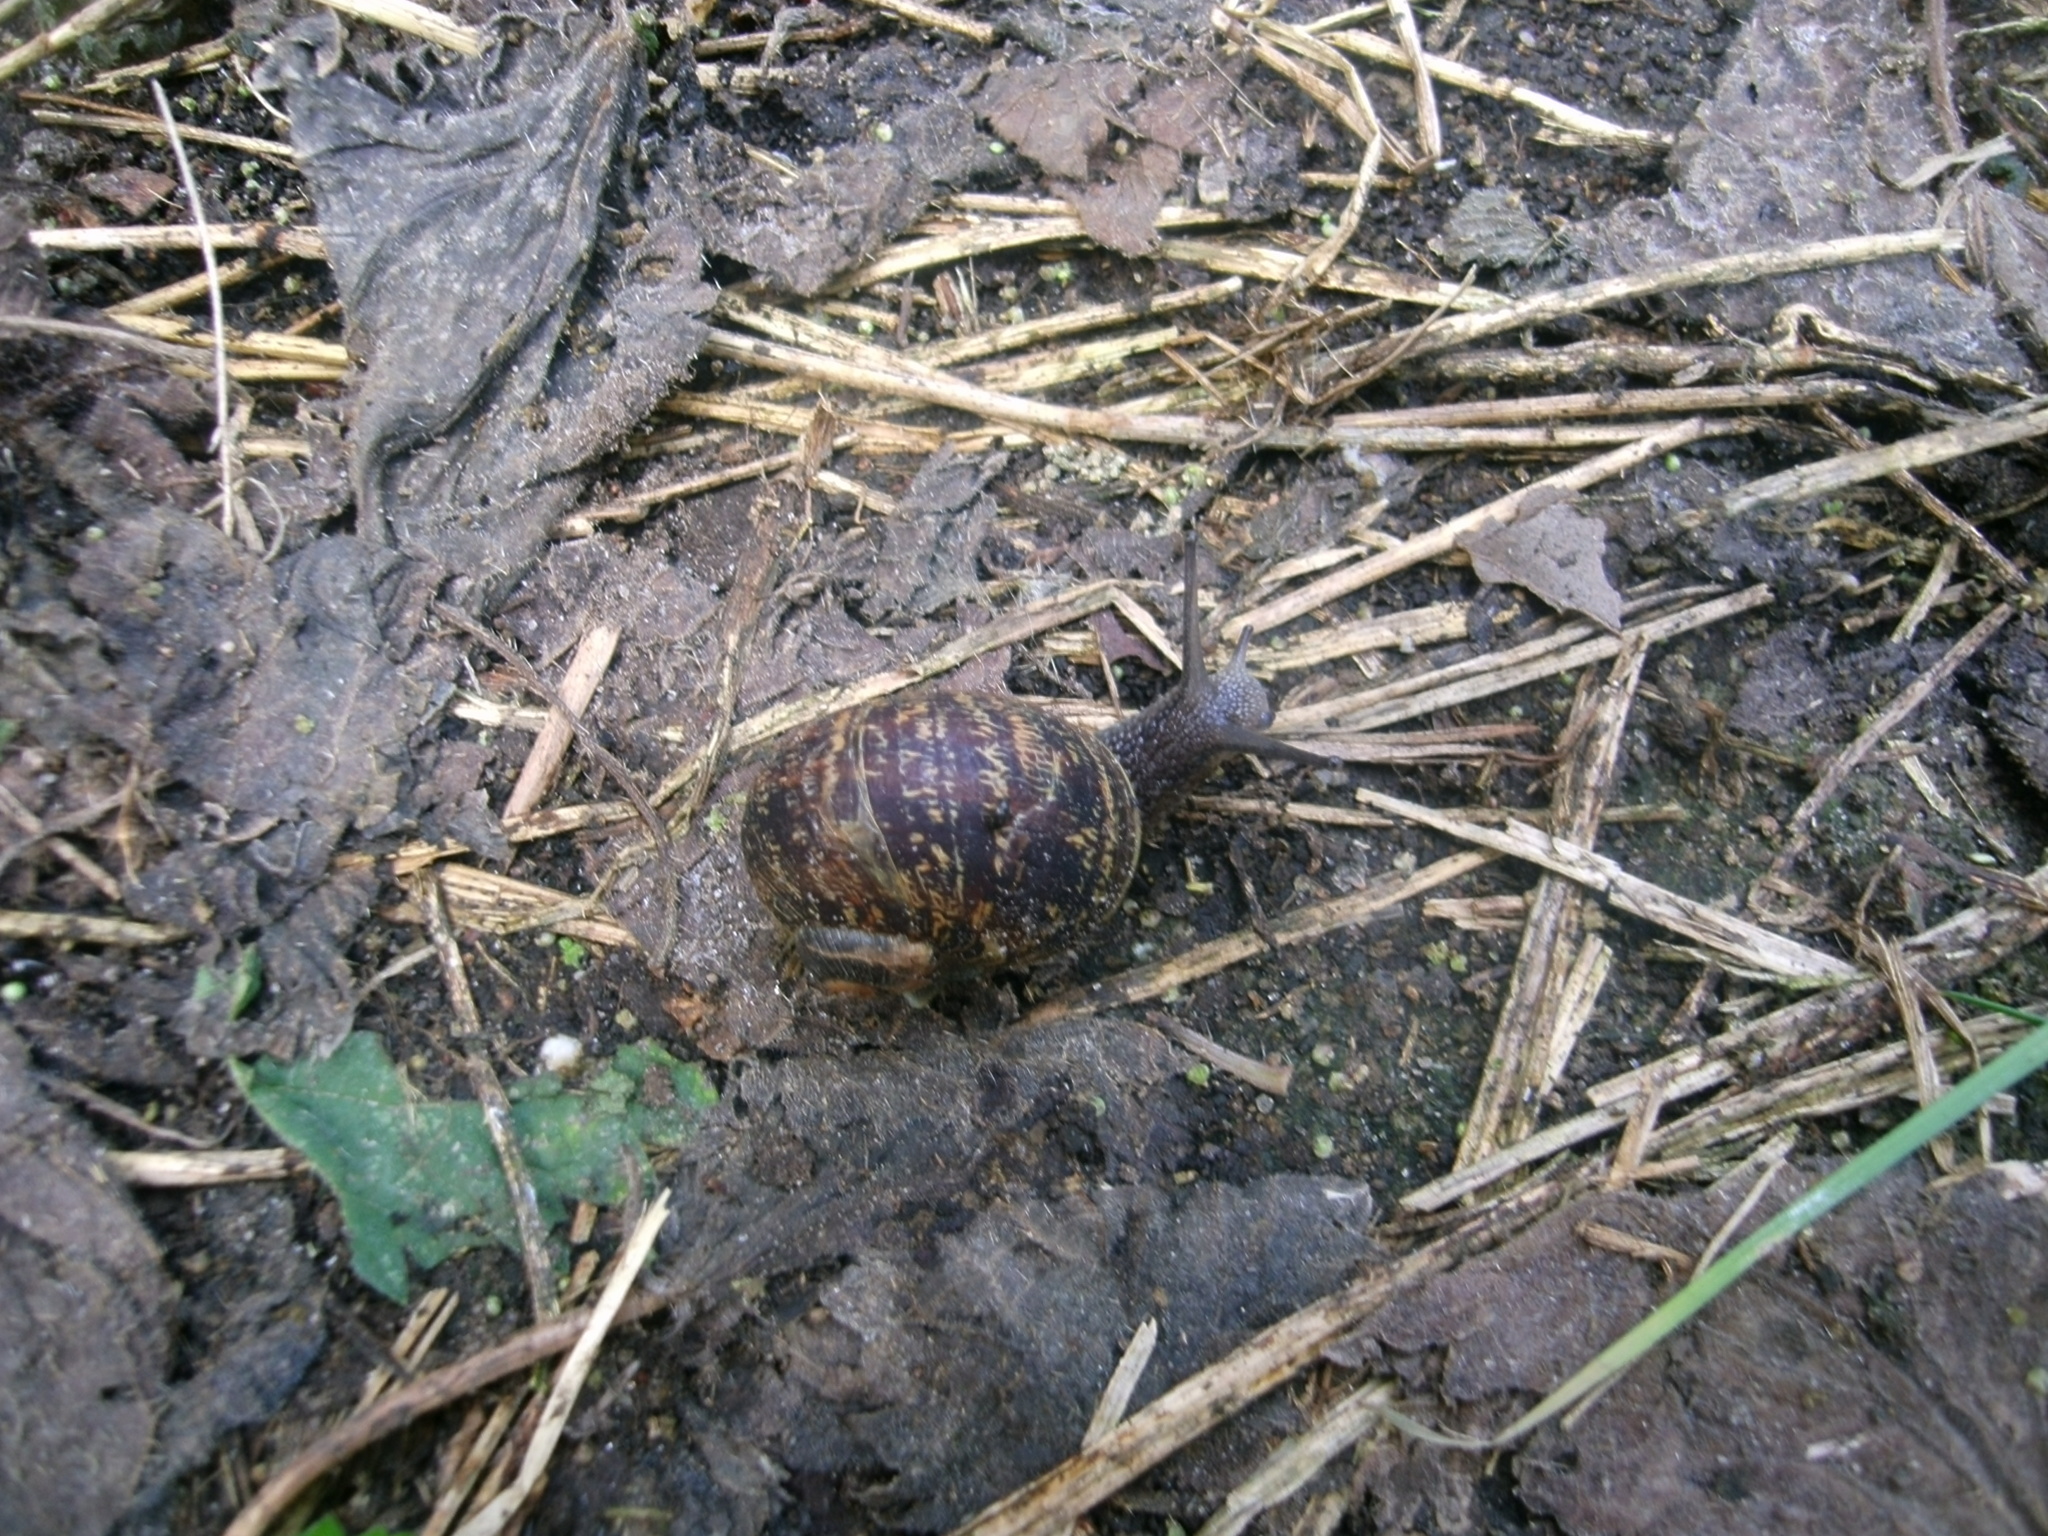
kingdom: Animalia
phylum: Mollusca
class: Gastropoda
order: Stylommatophora
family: Helicidae
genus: Cornu
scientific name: Cornu aspersum
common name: Brown garden snail
